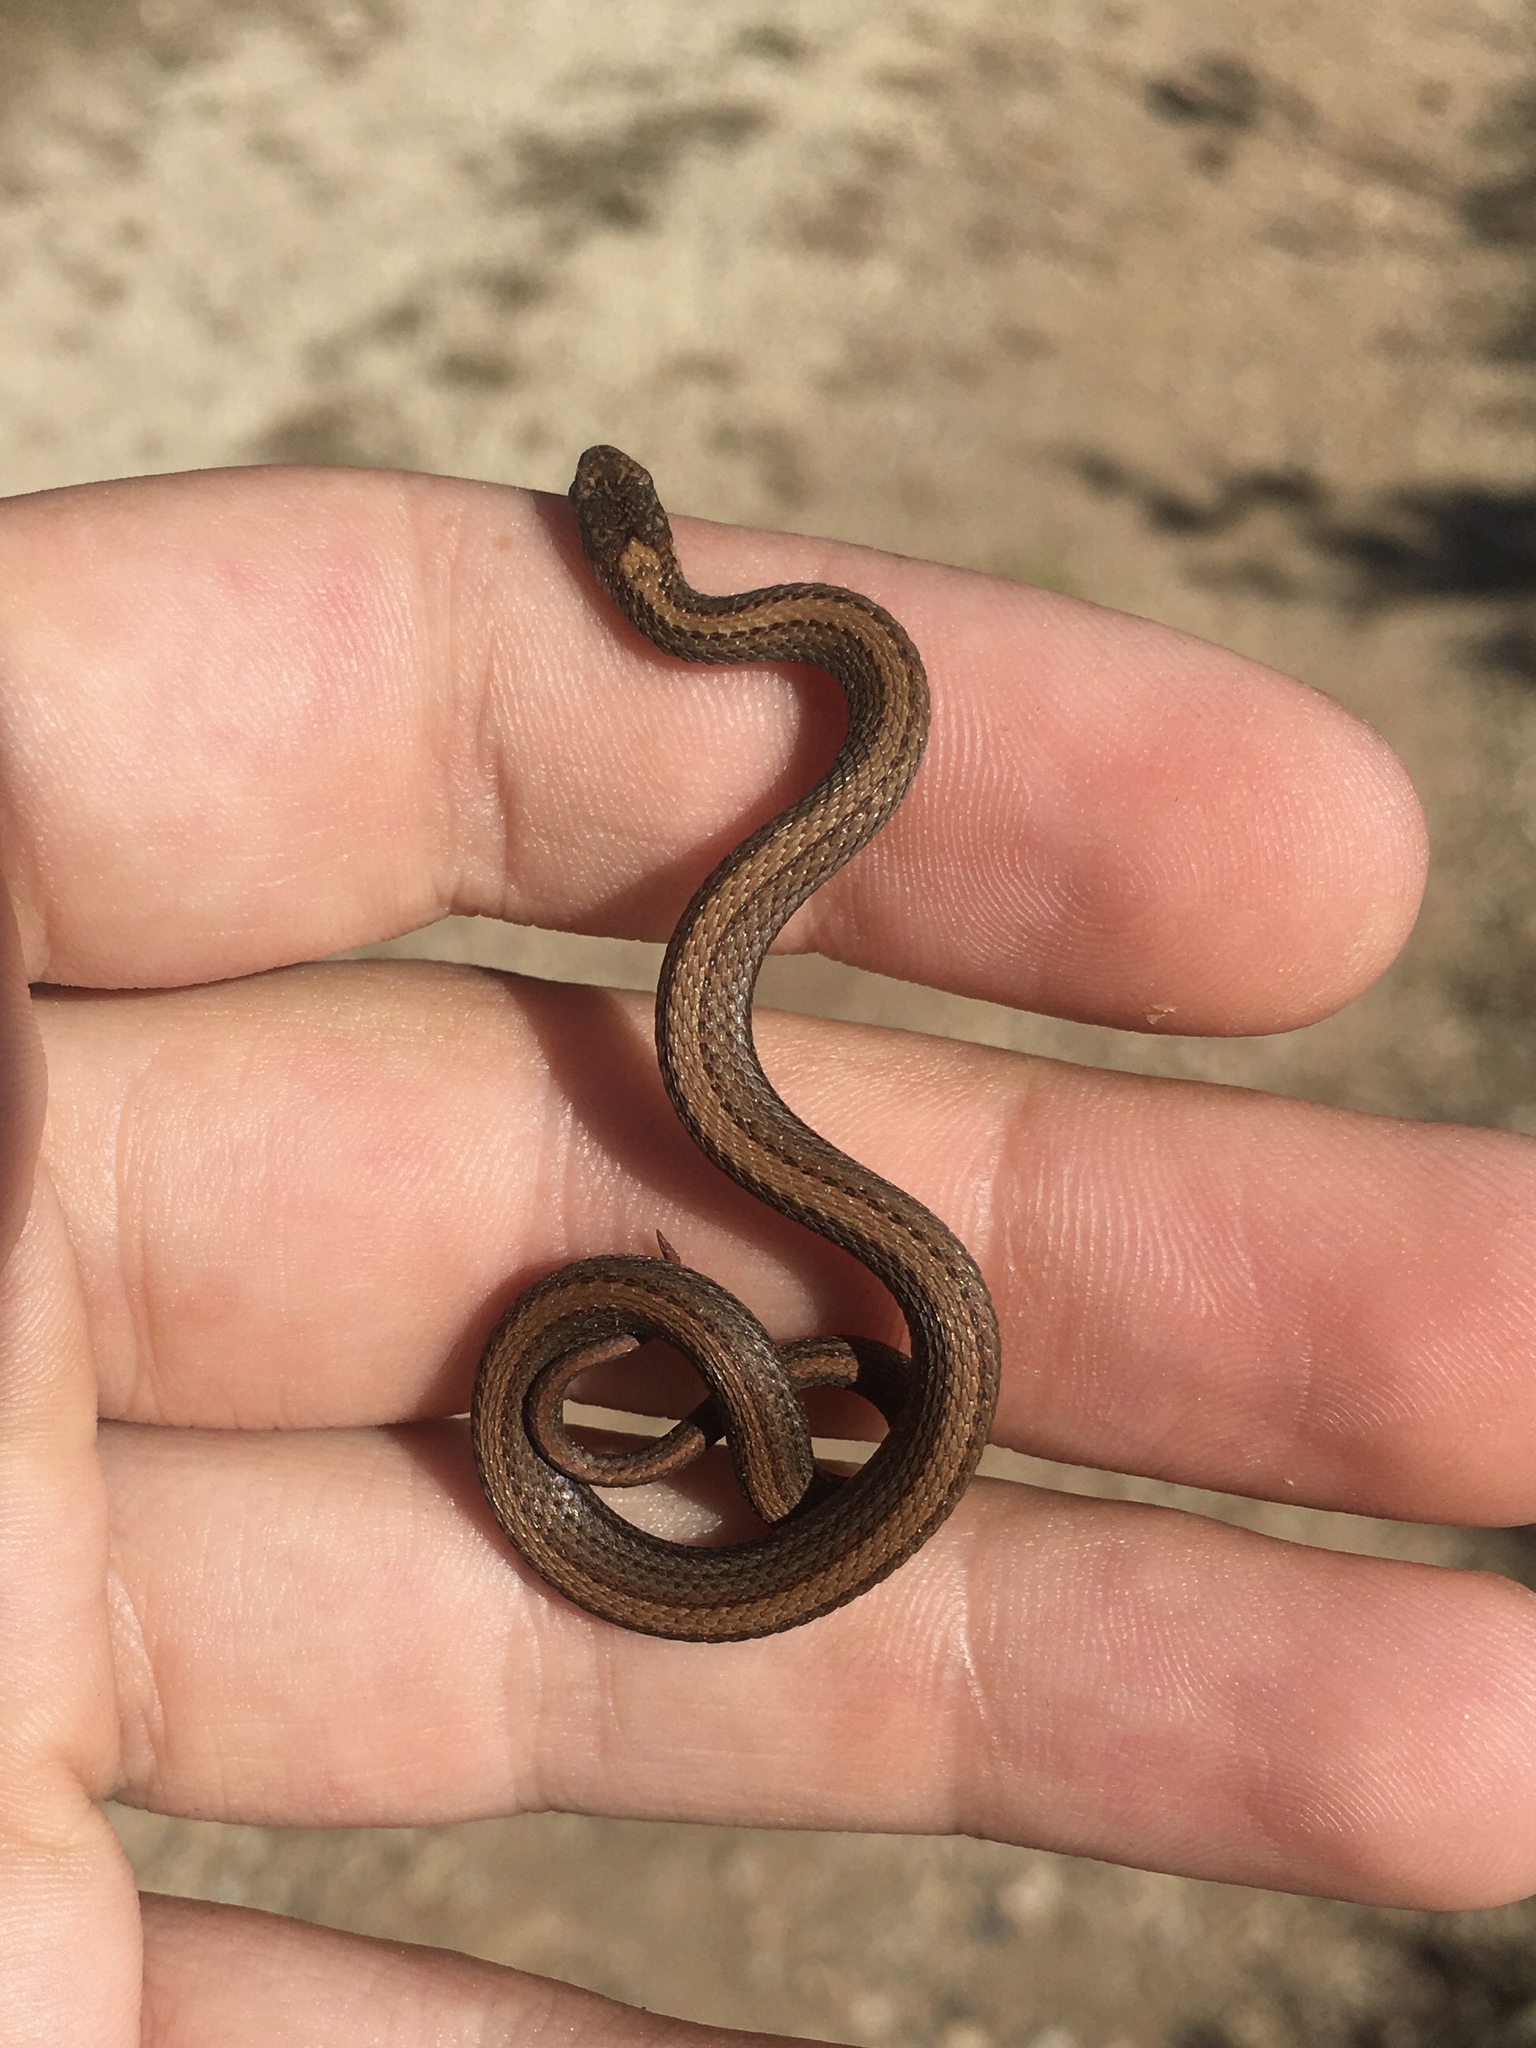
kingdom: Animalia
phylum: Chordata
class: Squamata
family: Colubridae
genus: Storeria
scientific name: Storeria occipitomaculata
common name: Redbelly snake
